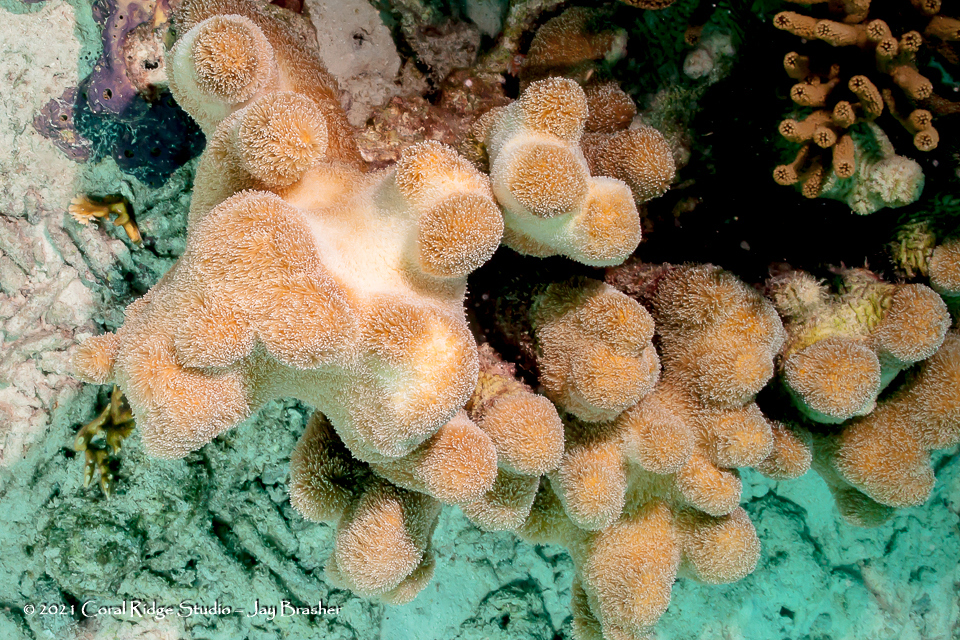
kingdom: Animalia
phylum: Cnidaria
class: Anthozoa
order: Scleractinia
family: Meandrinidae
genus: Dendrogyra
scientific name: Dendrogyra cylindrus
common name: Pillar coral
